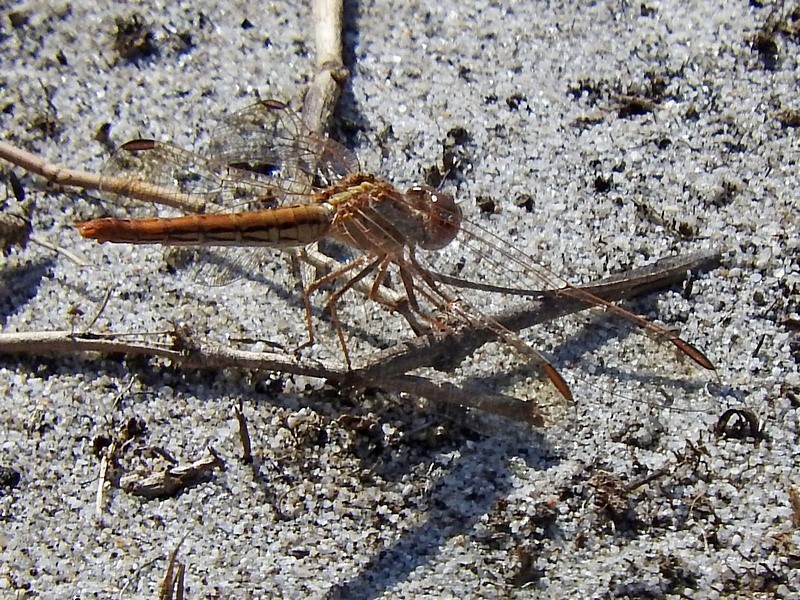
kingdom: Animalia
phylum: Arthropoda
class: Insecta
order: Odonata
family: Libellulidae
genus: Diplacodes
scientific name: Diplacodes haematodes
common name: Scarlet percher
